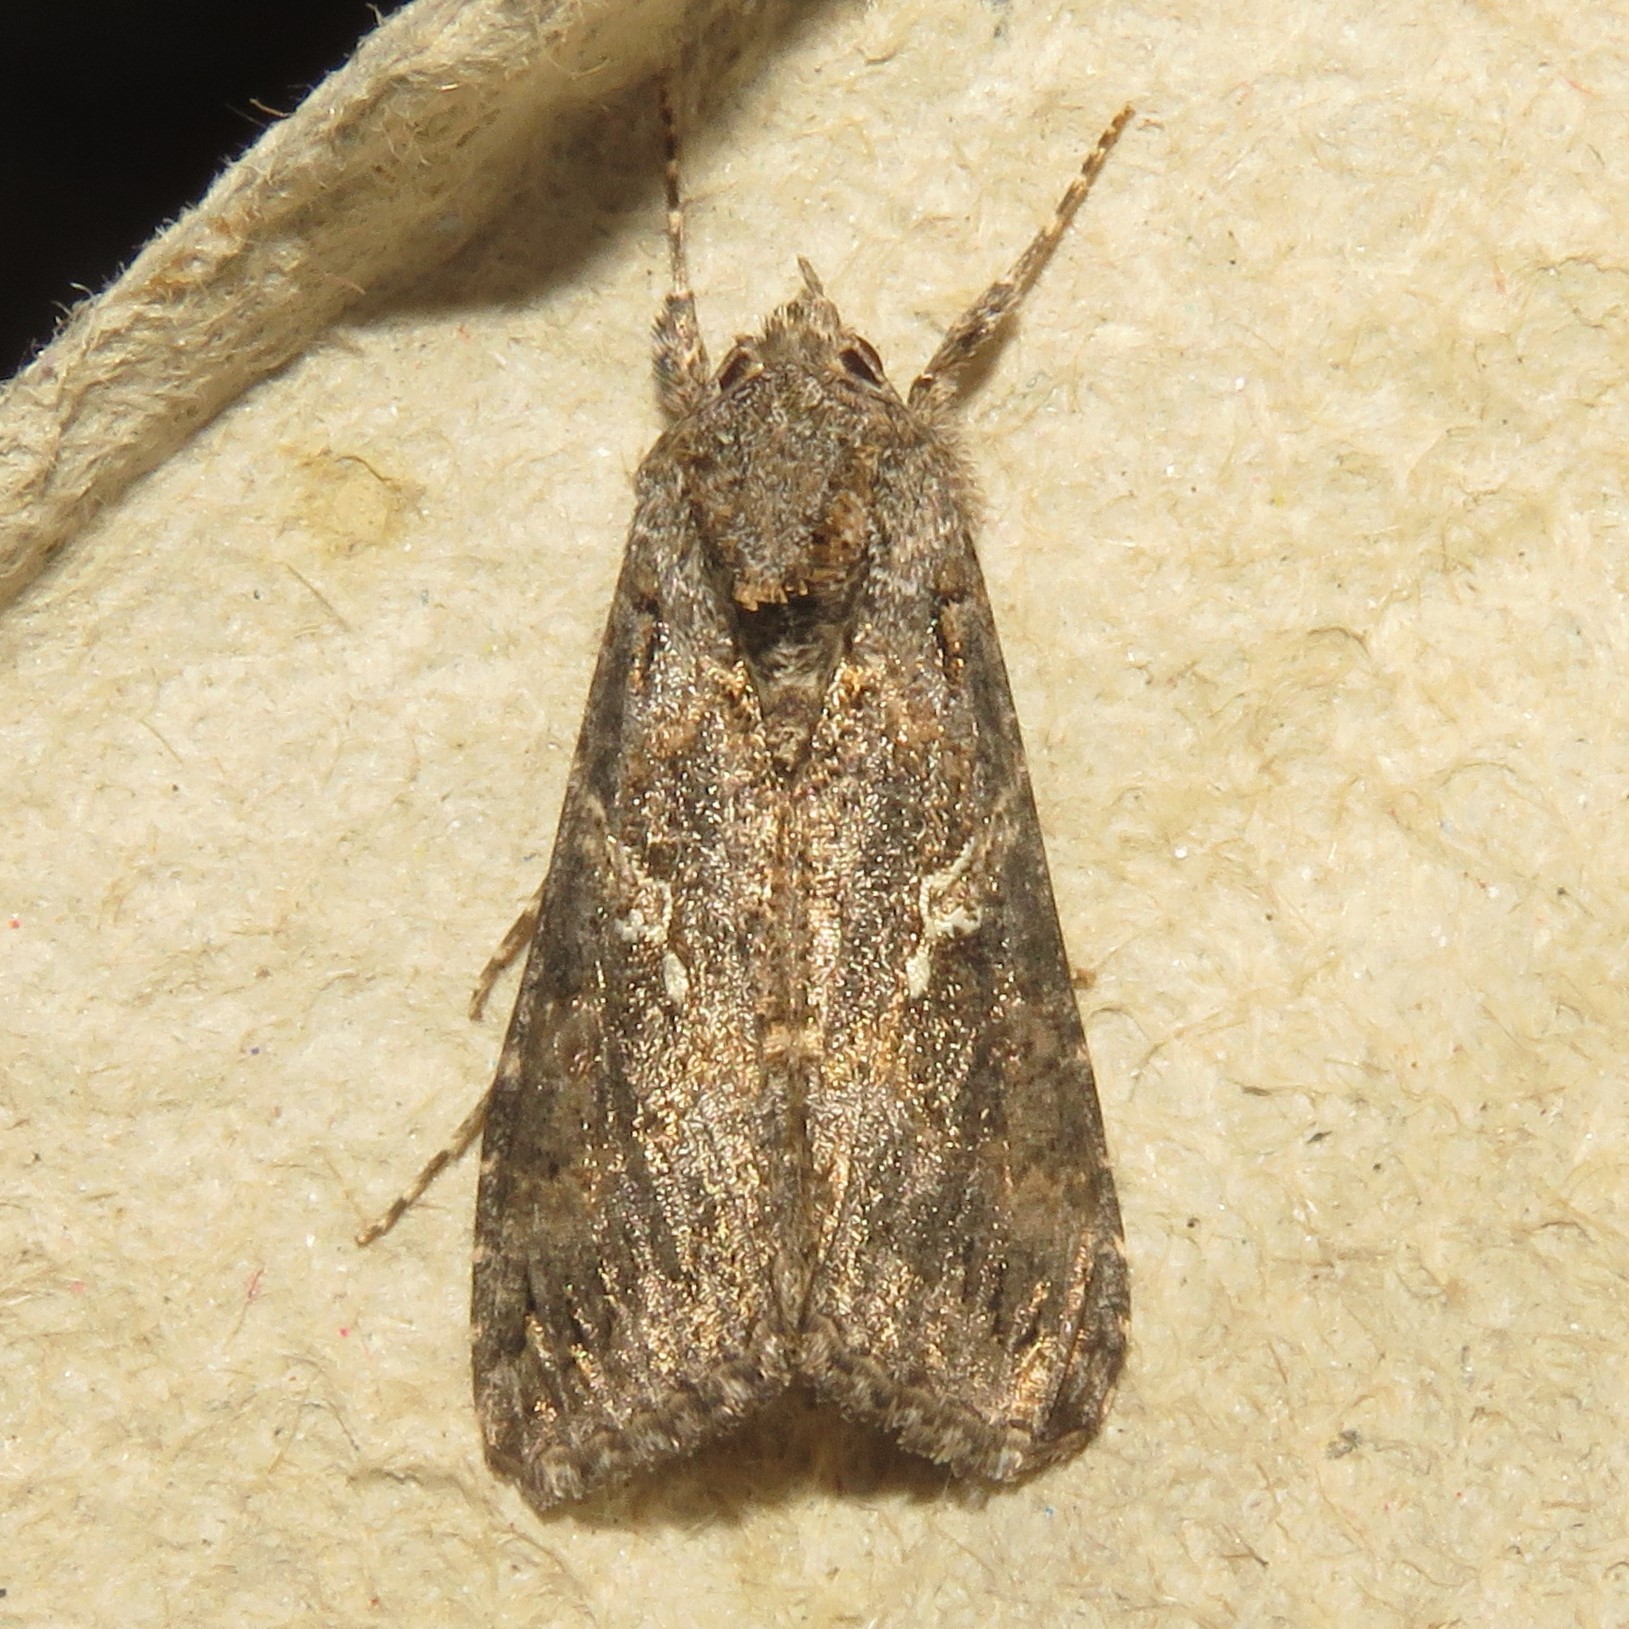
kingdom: Animalia
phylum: Arthropoda
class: Insecta
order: Lepidoptera
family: Noctuidae
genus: Trichoplusia
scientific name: Trichoplusia ni
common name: Ni moth
